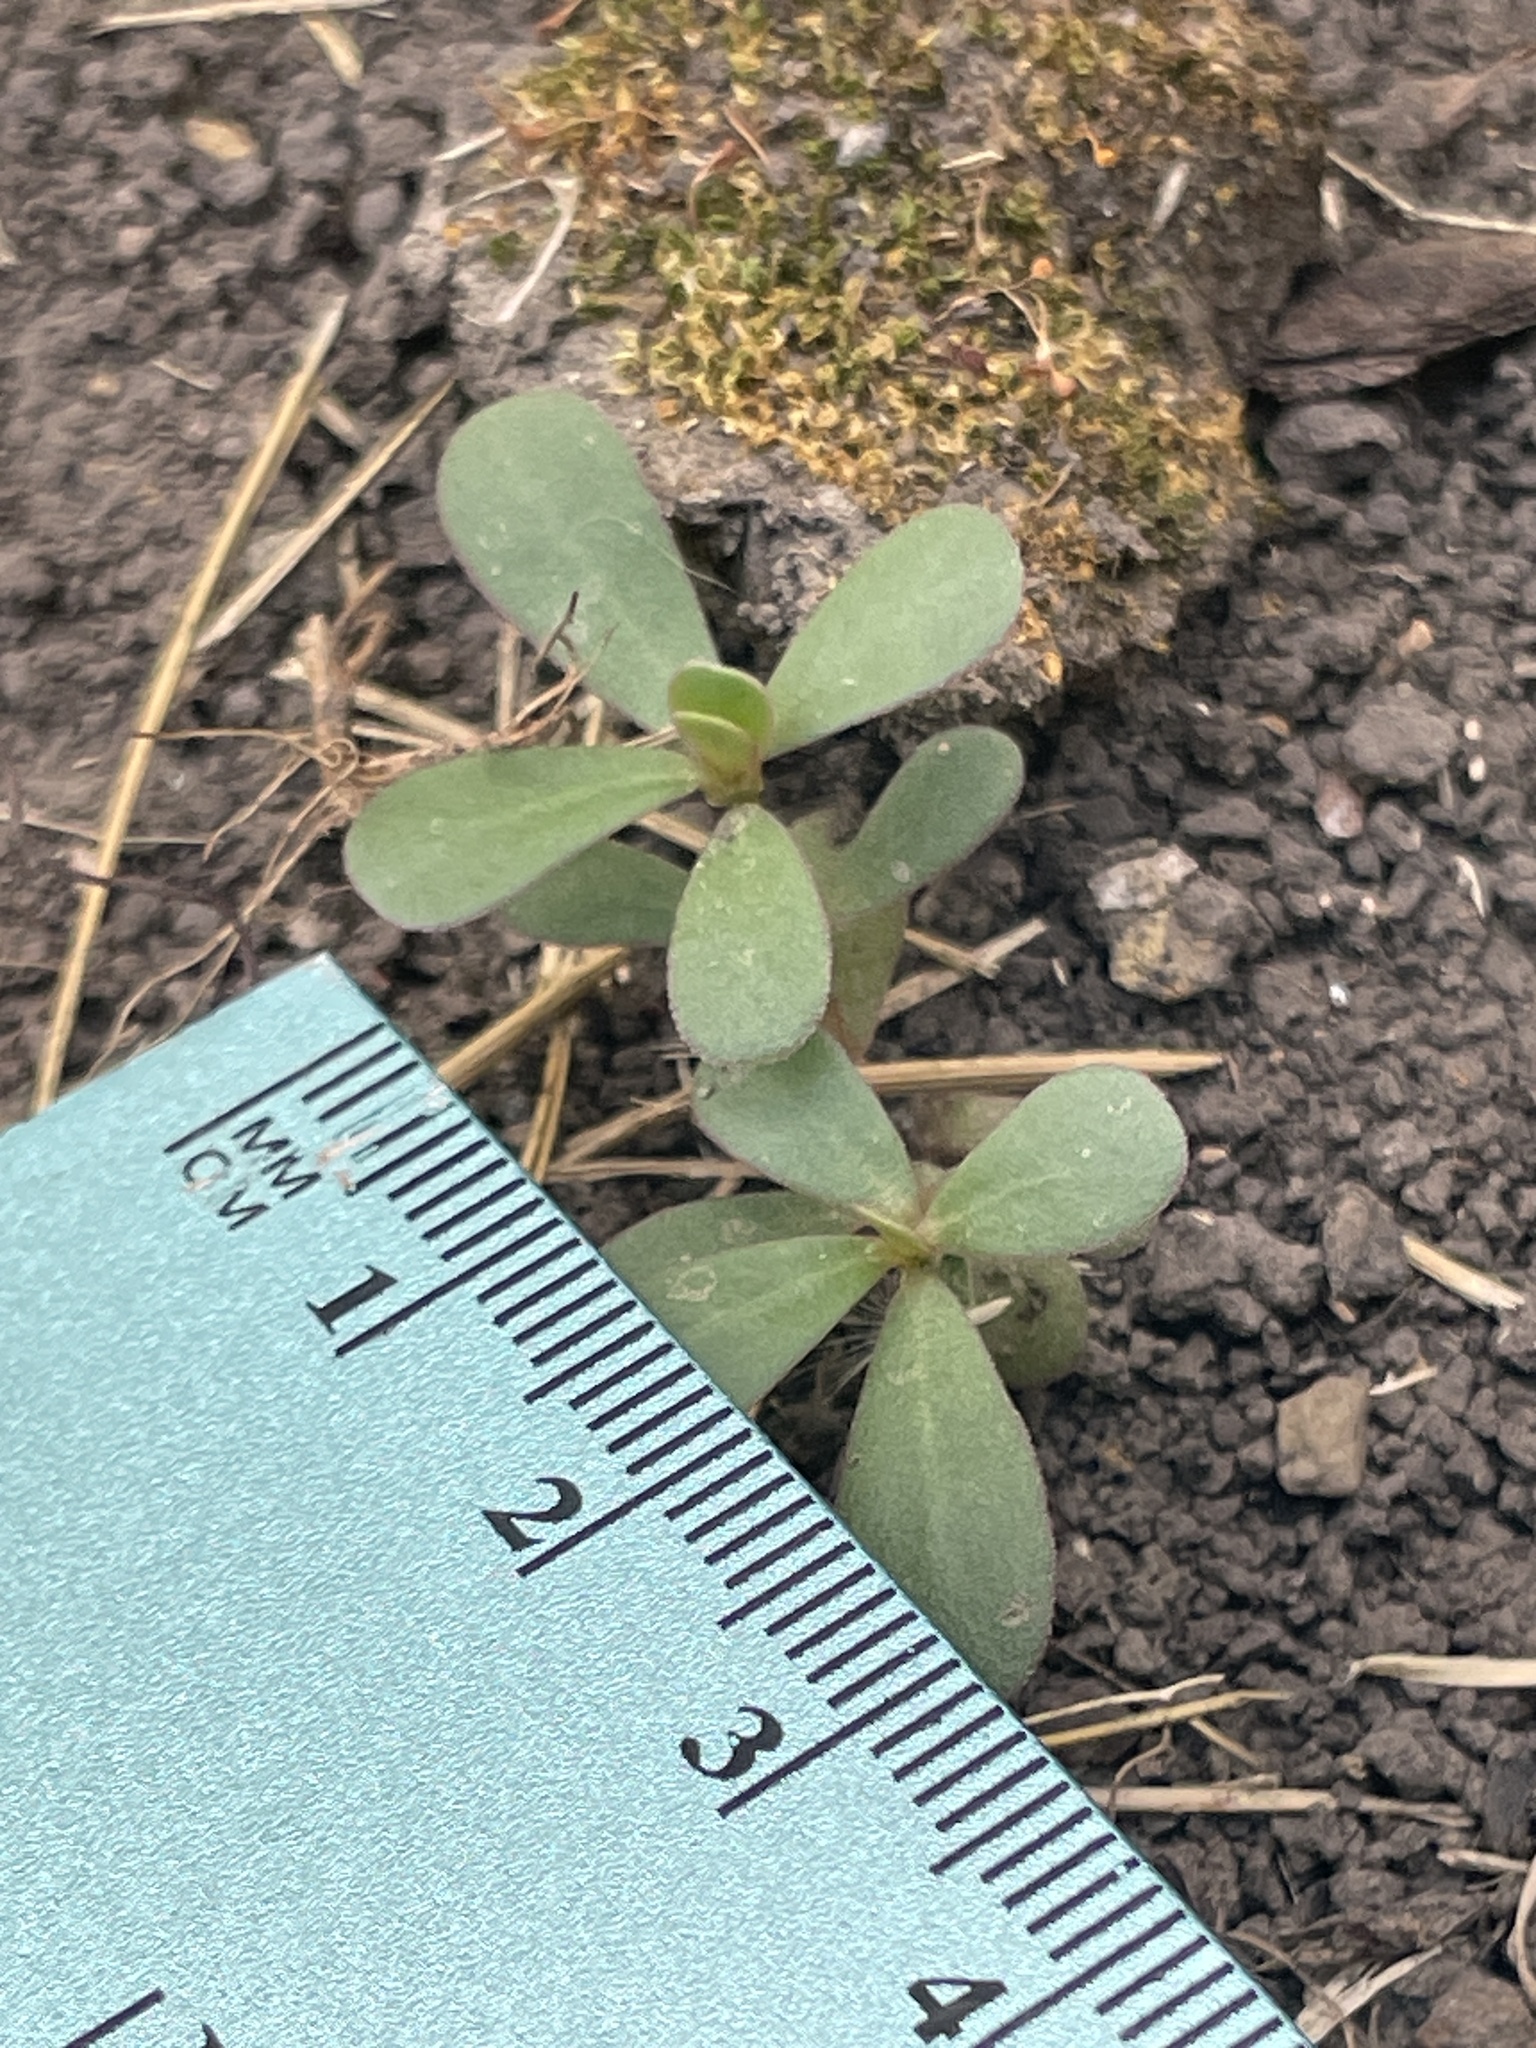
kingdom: Plantae
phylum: Tracheophyta
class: Magnoliopsida
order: Caryophyllales
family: Portulacaceae
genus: Portulaca
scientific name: Portulaca oleracea
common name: Common purslane
